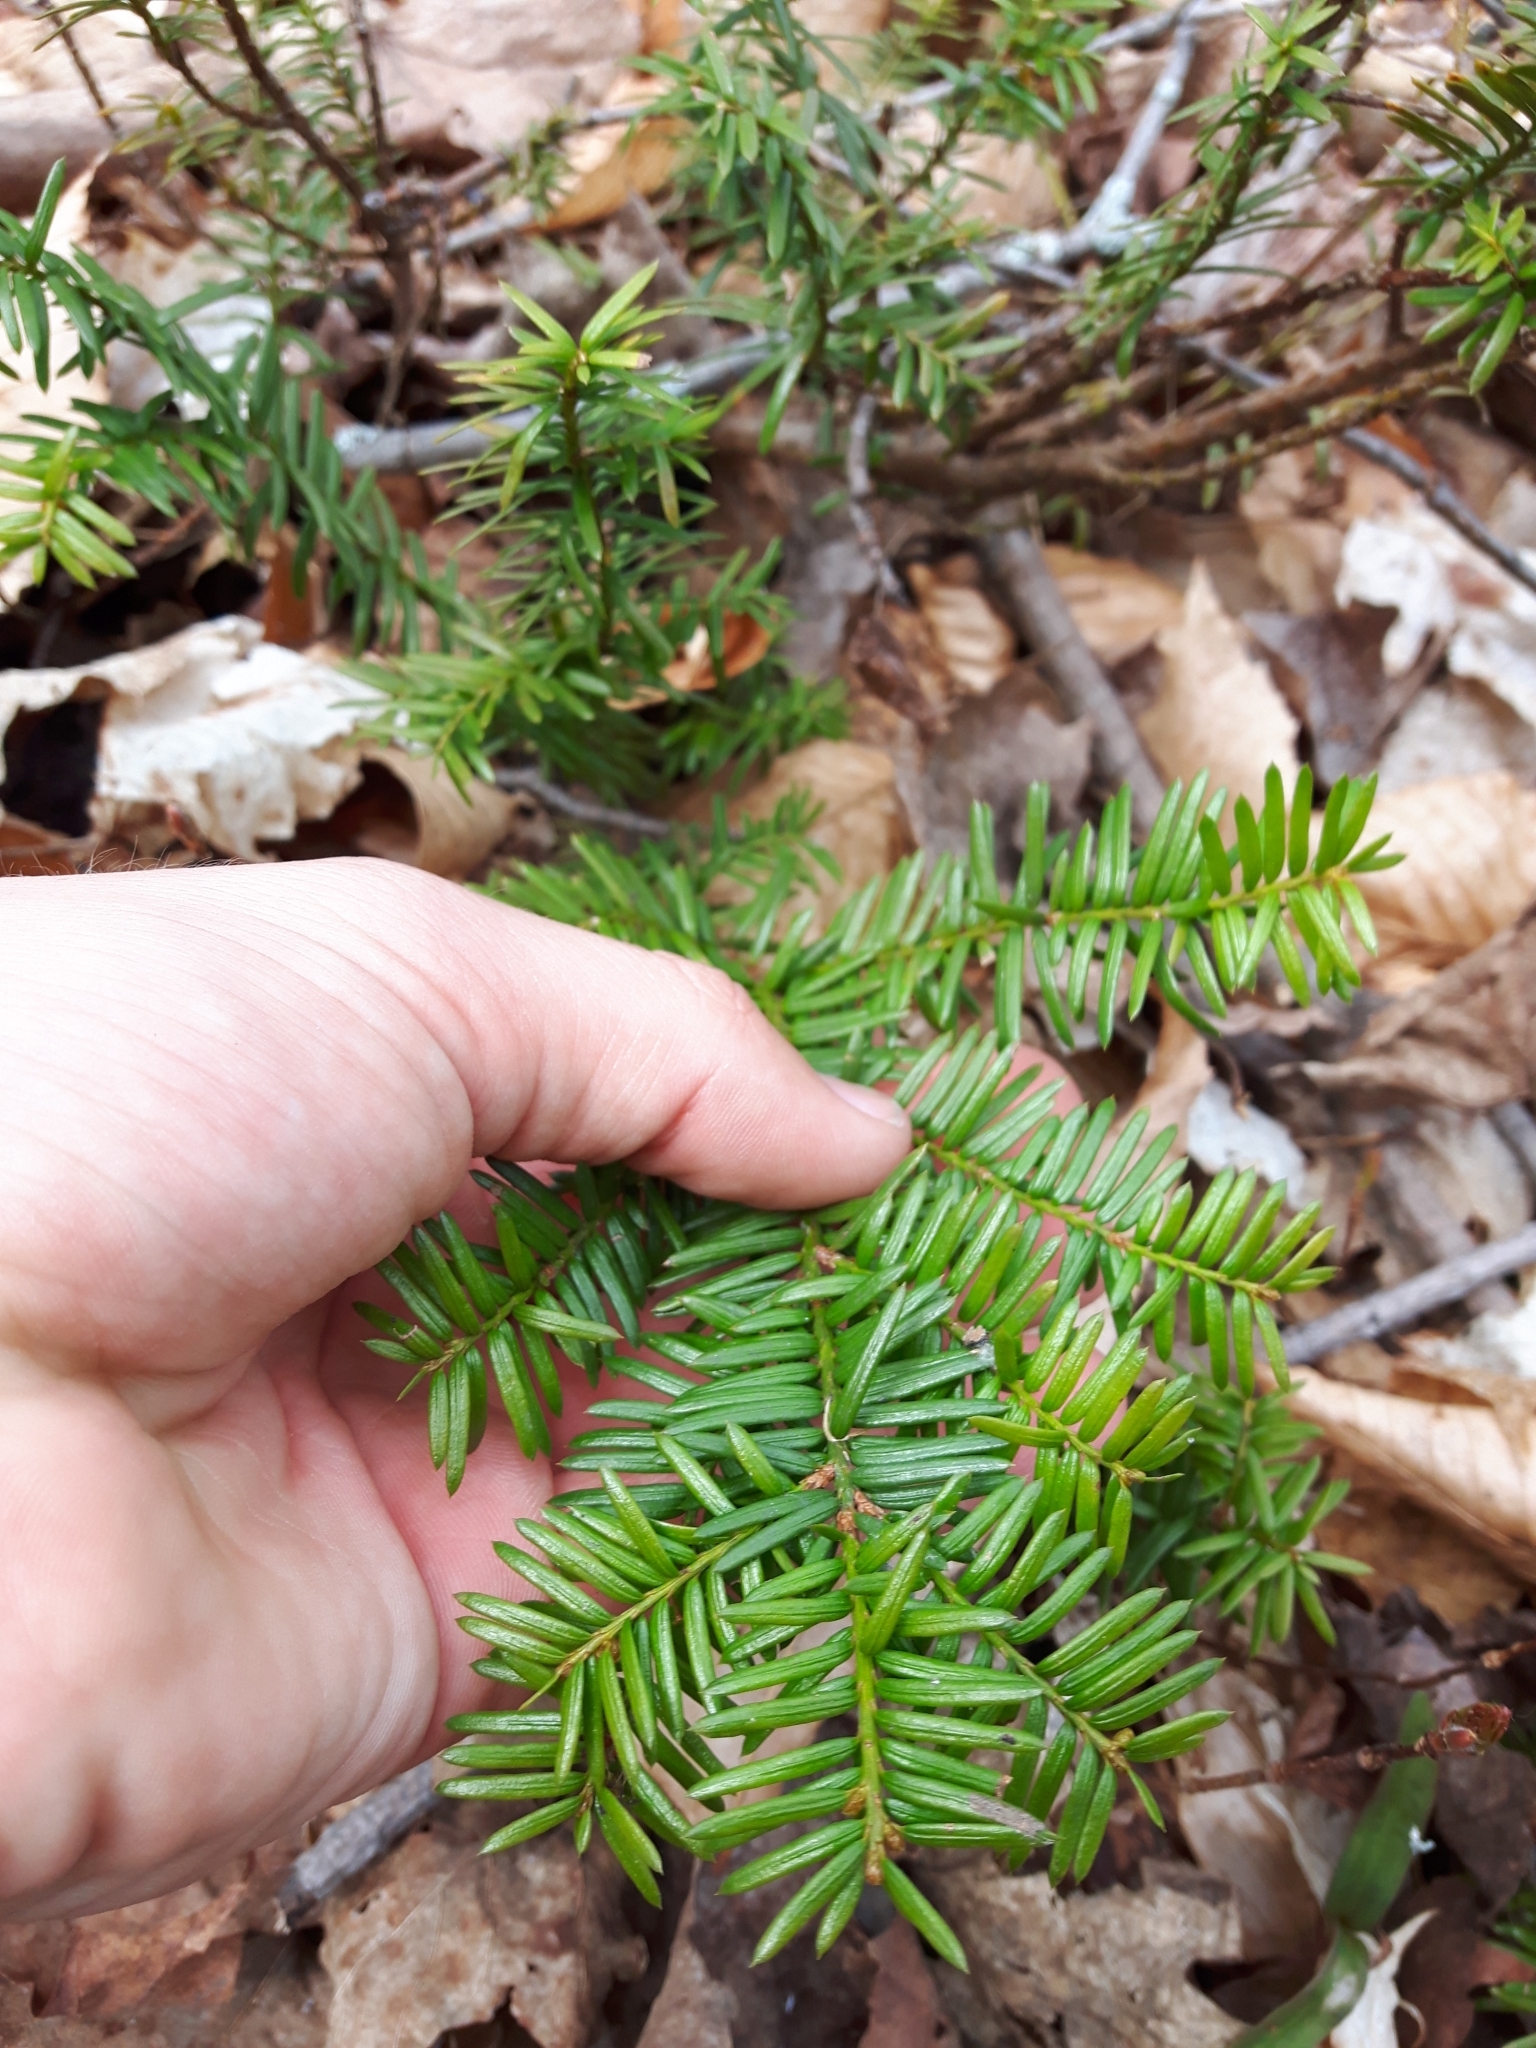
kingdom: Plantae
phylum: Tracheophyta
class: Pinopsida
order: Pinales
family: Taxaceae
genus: Taxus
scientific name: Taxus canadensis
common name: American yew
